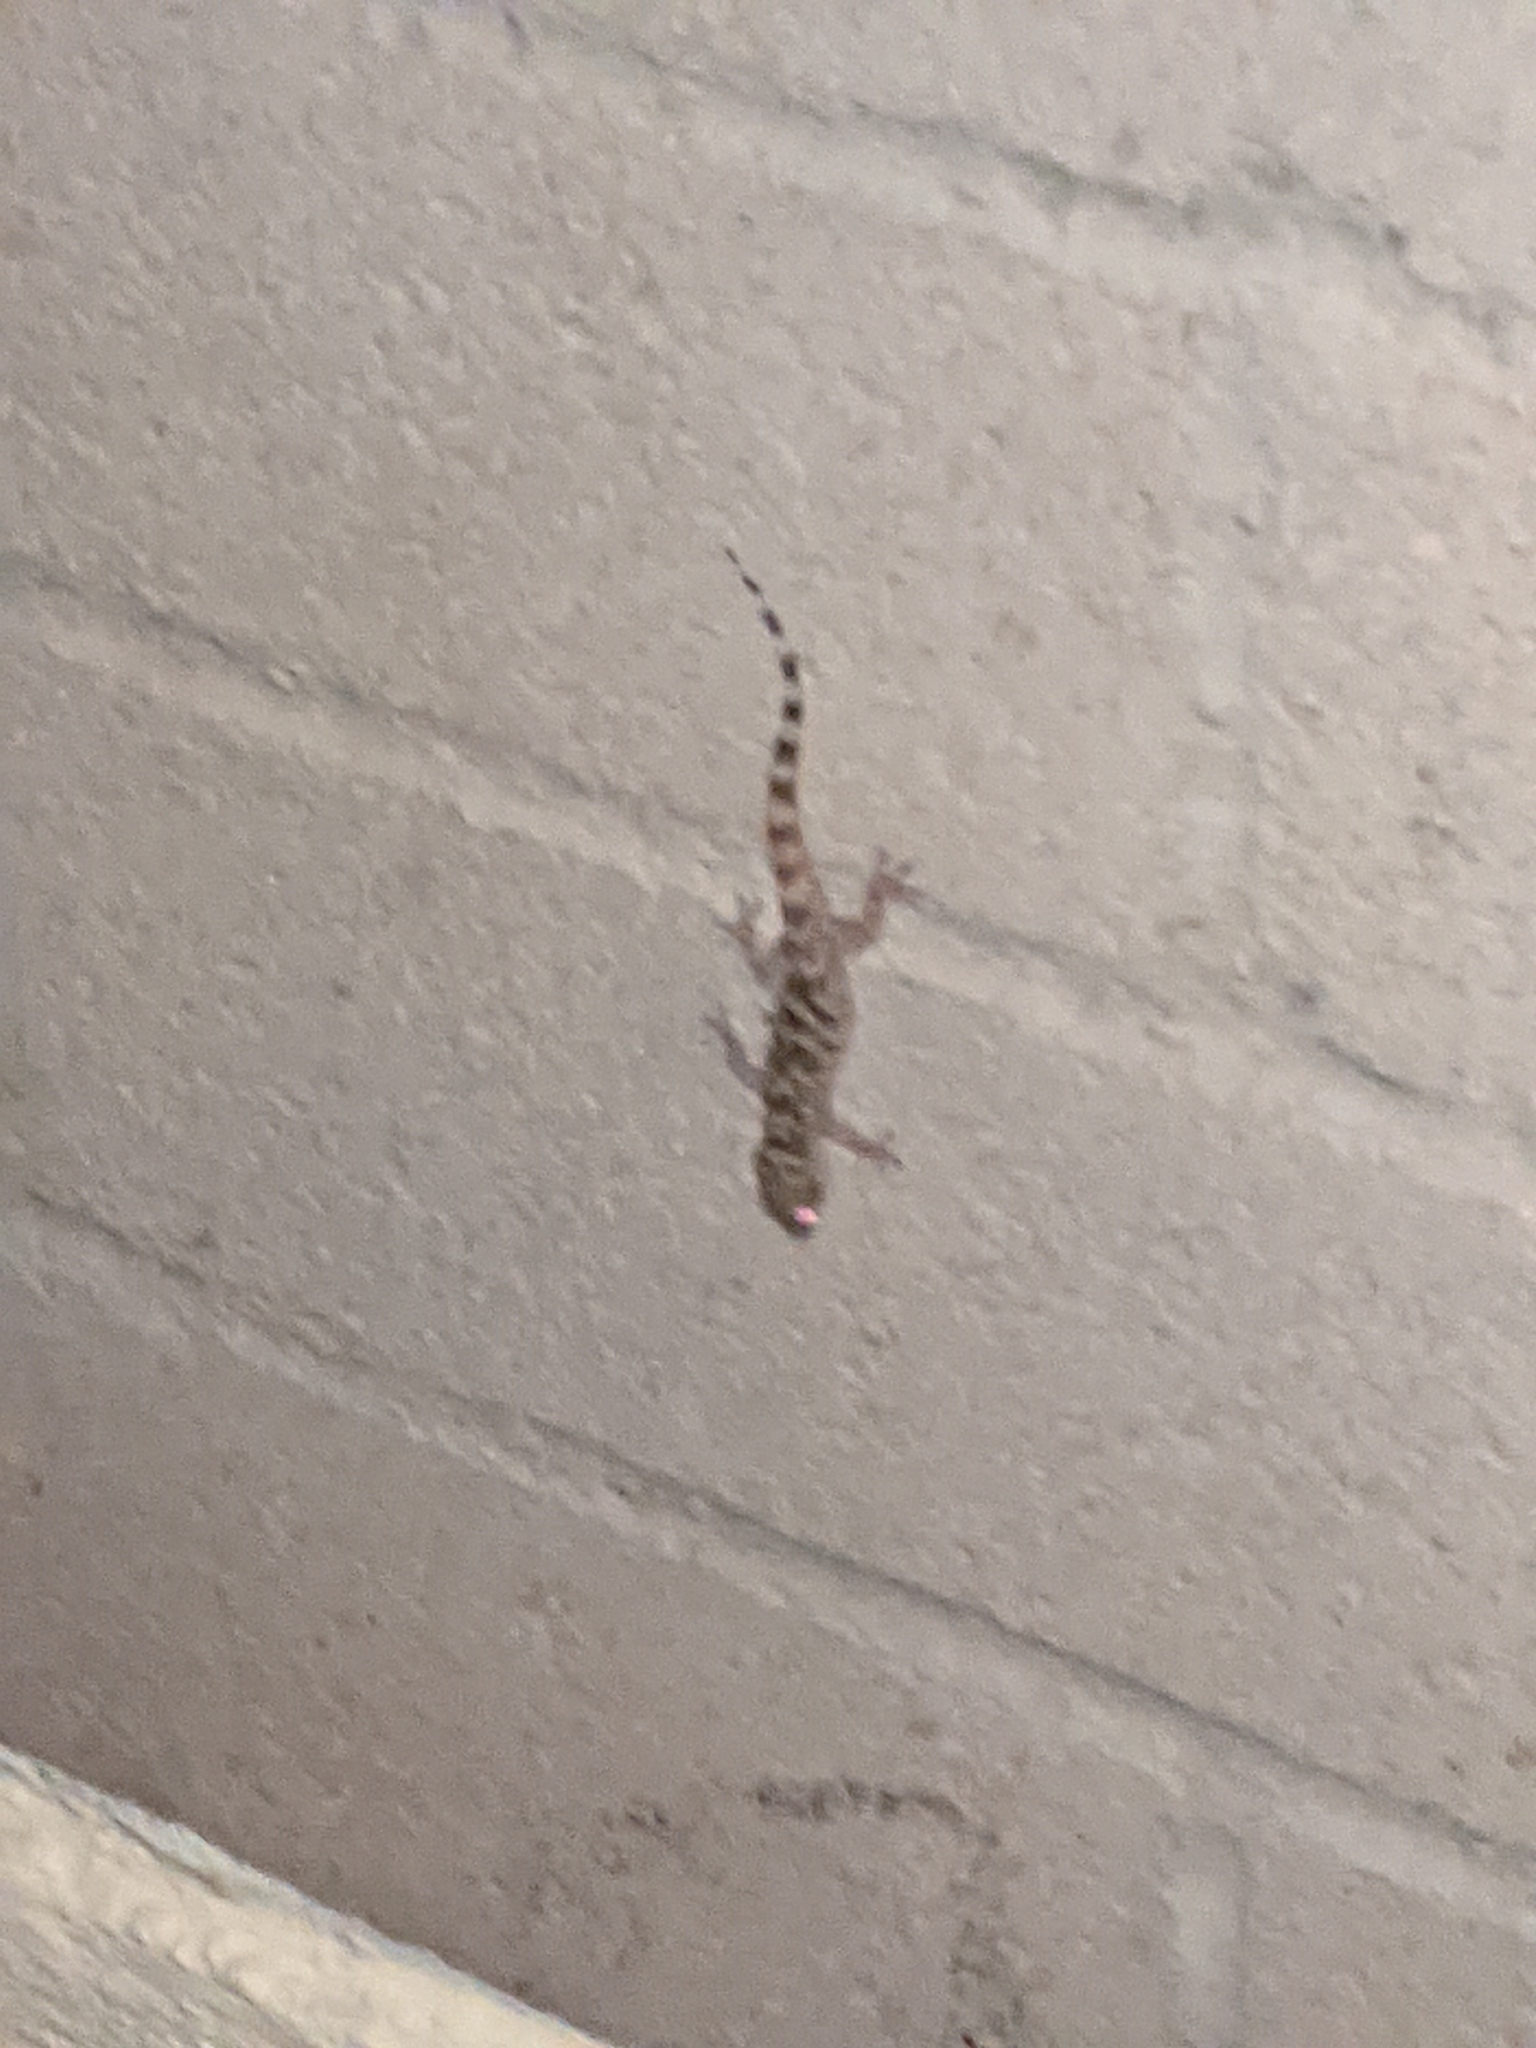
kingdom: Animalia
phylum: Chordata
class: Squamata
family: Gekkonidae
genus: Hemidactylus
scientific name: Hemidactylus turcicus
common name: Turkish gecko
